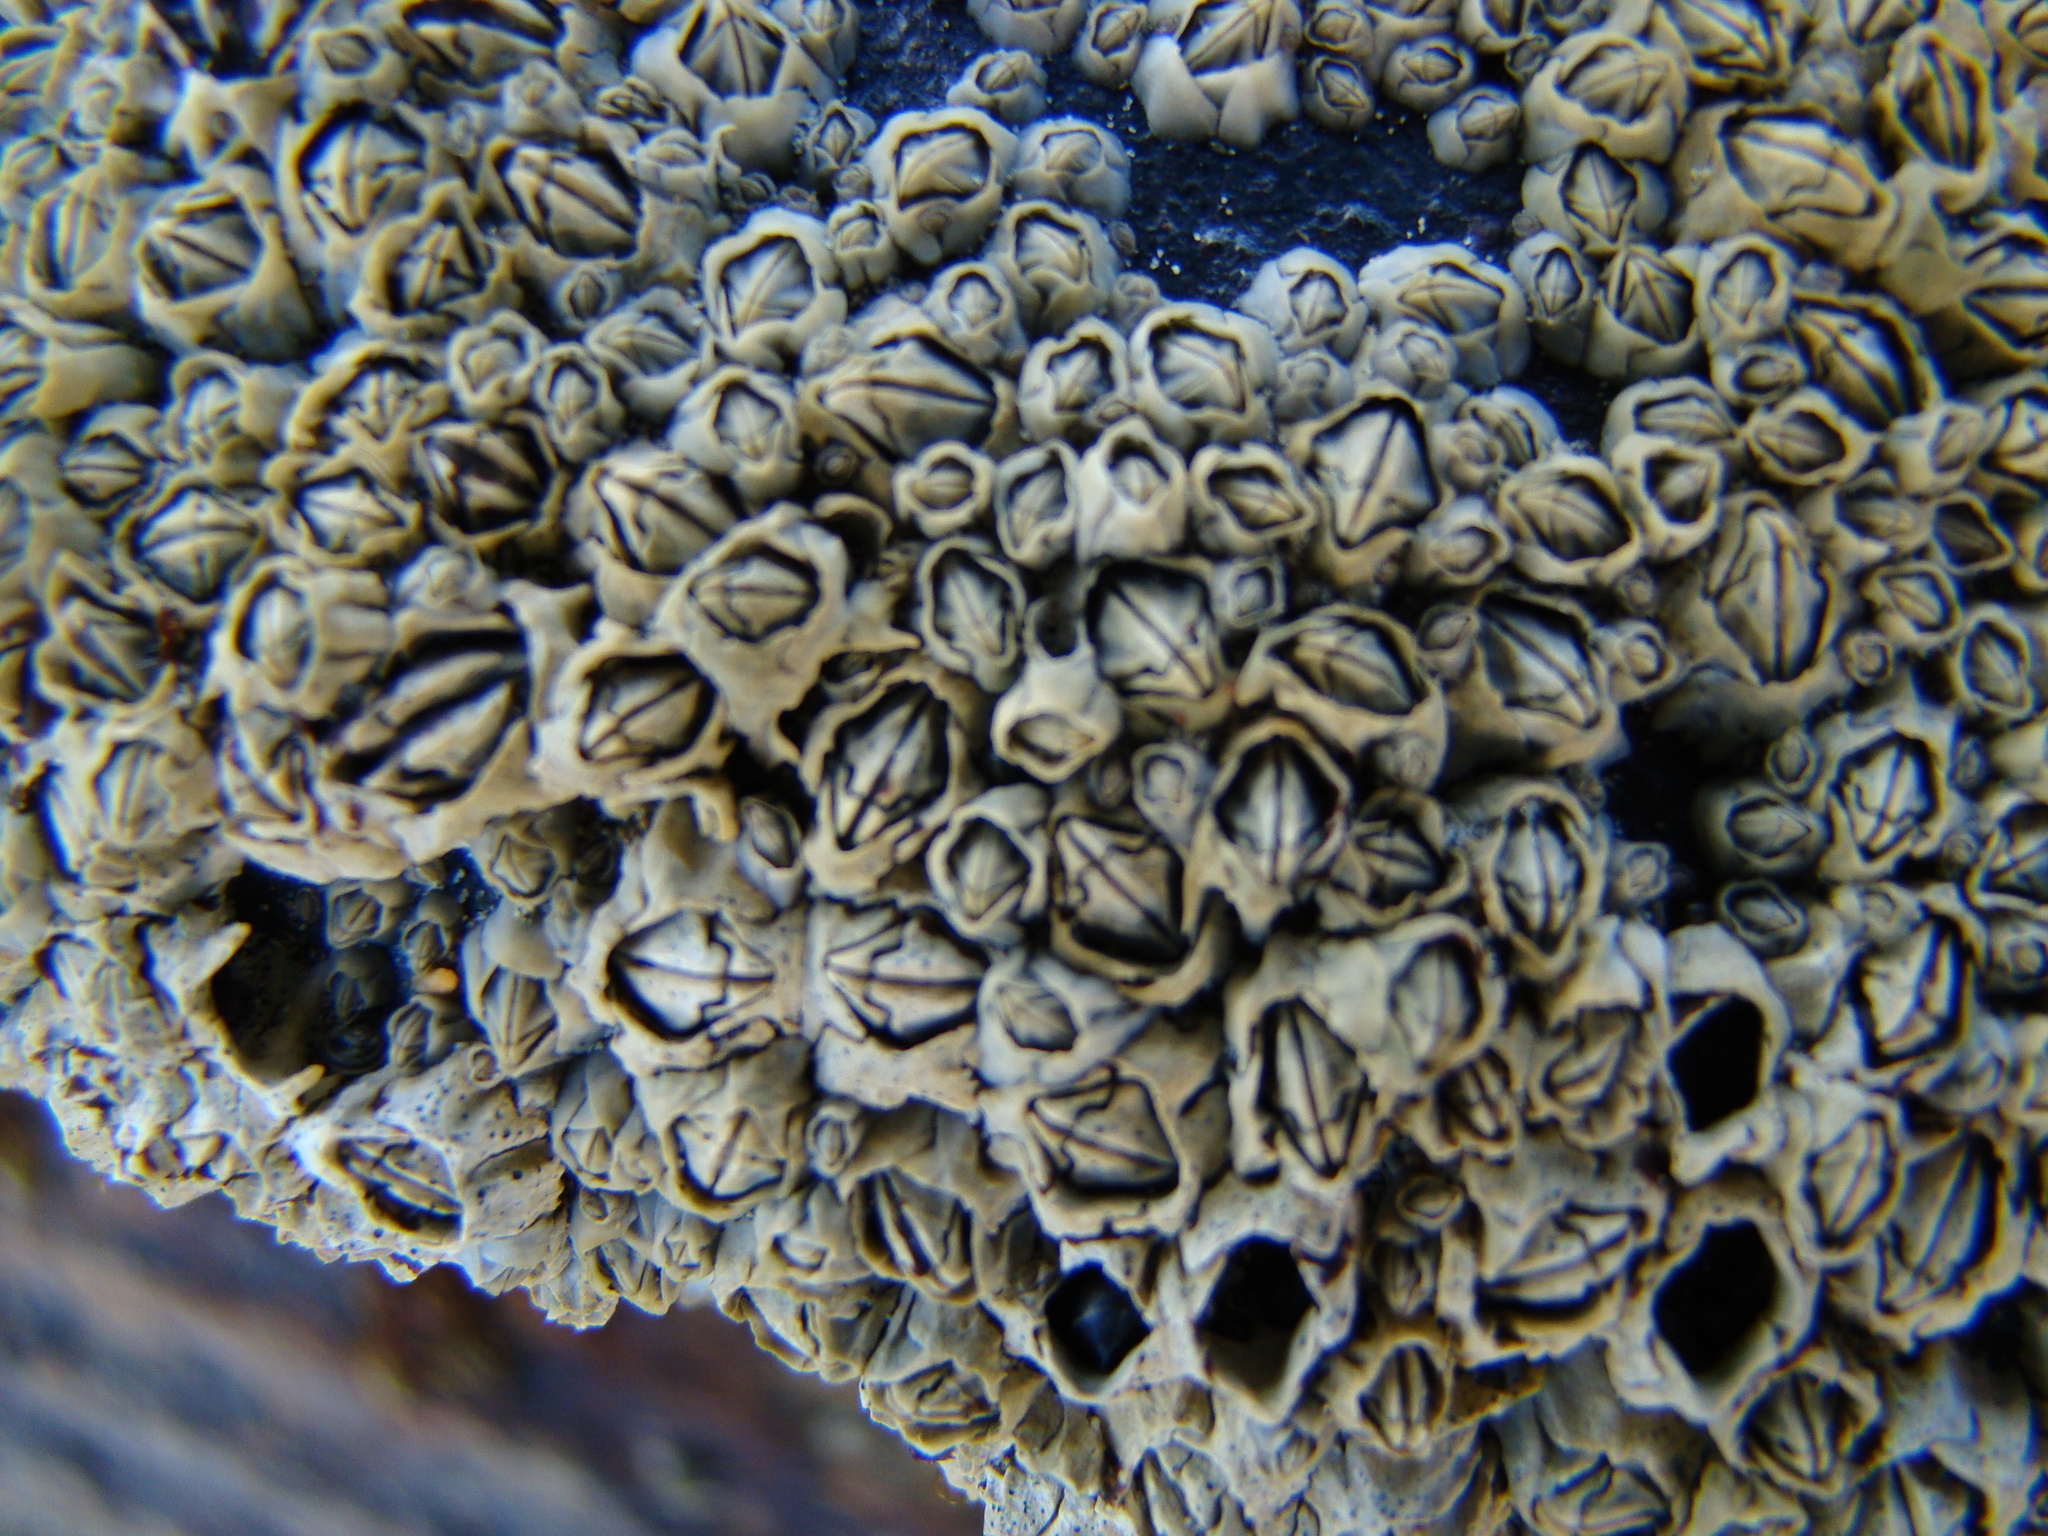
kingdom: Animalia
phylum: Arthropoda
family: Elminiidae
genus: Austrominius
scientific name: Austrominius modestus
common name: Australasian barnacle
